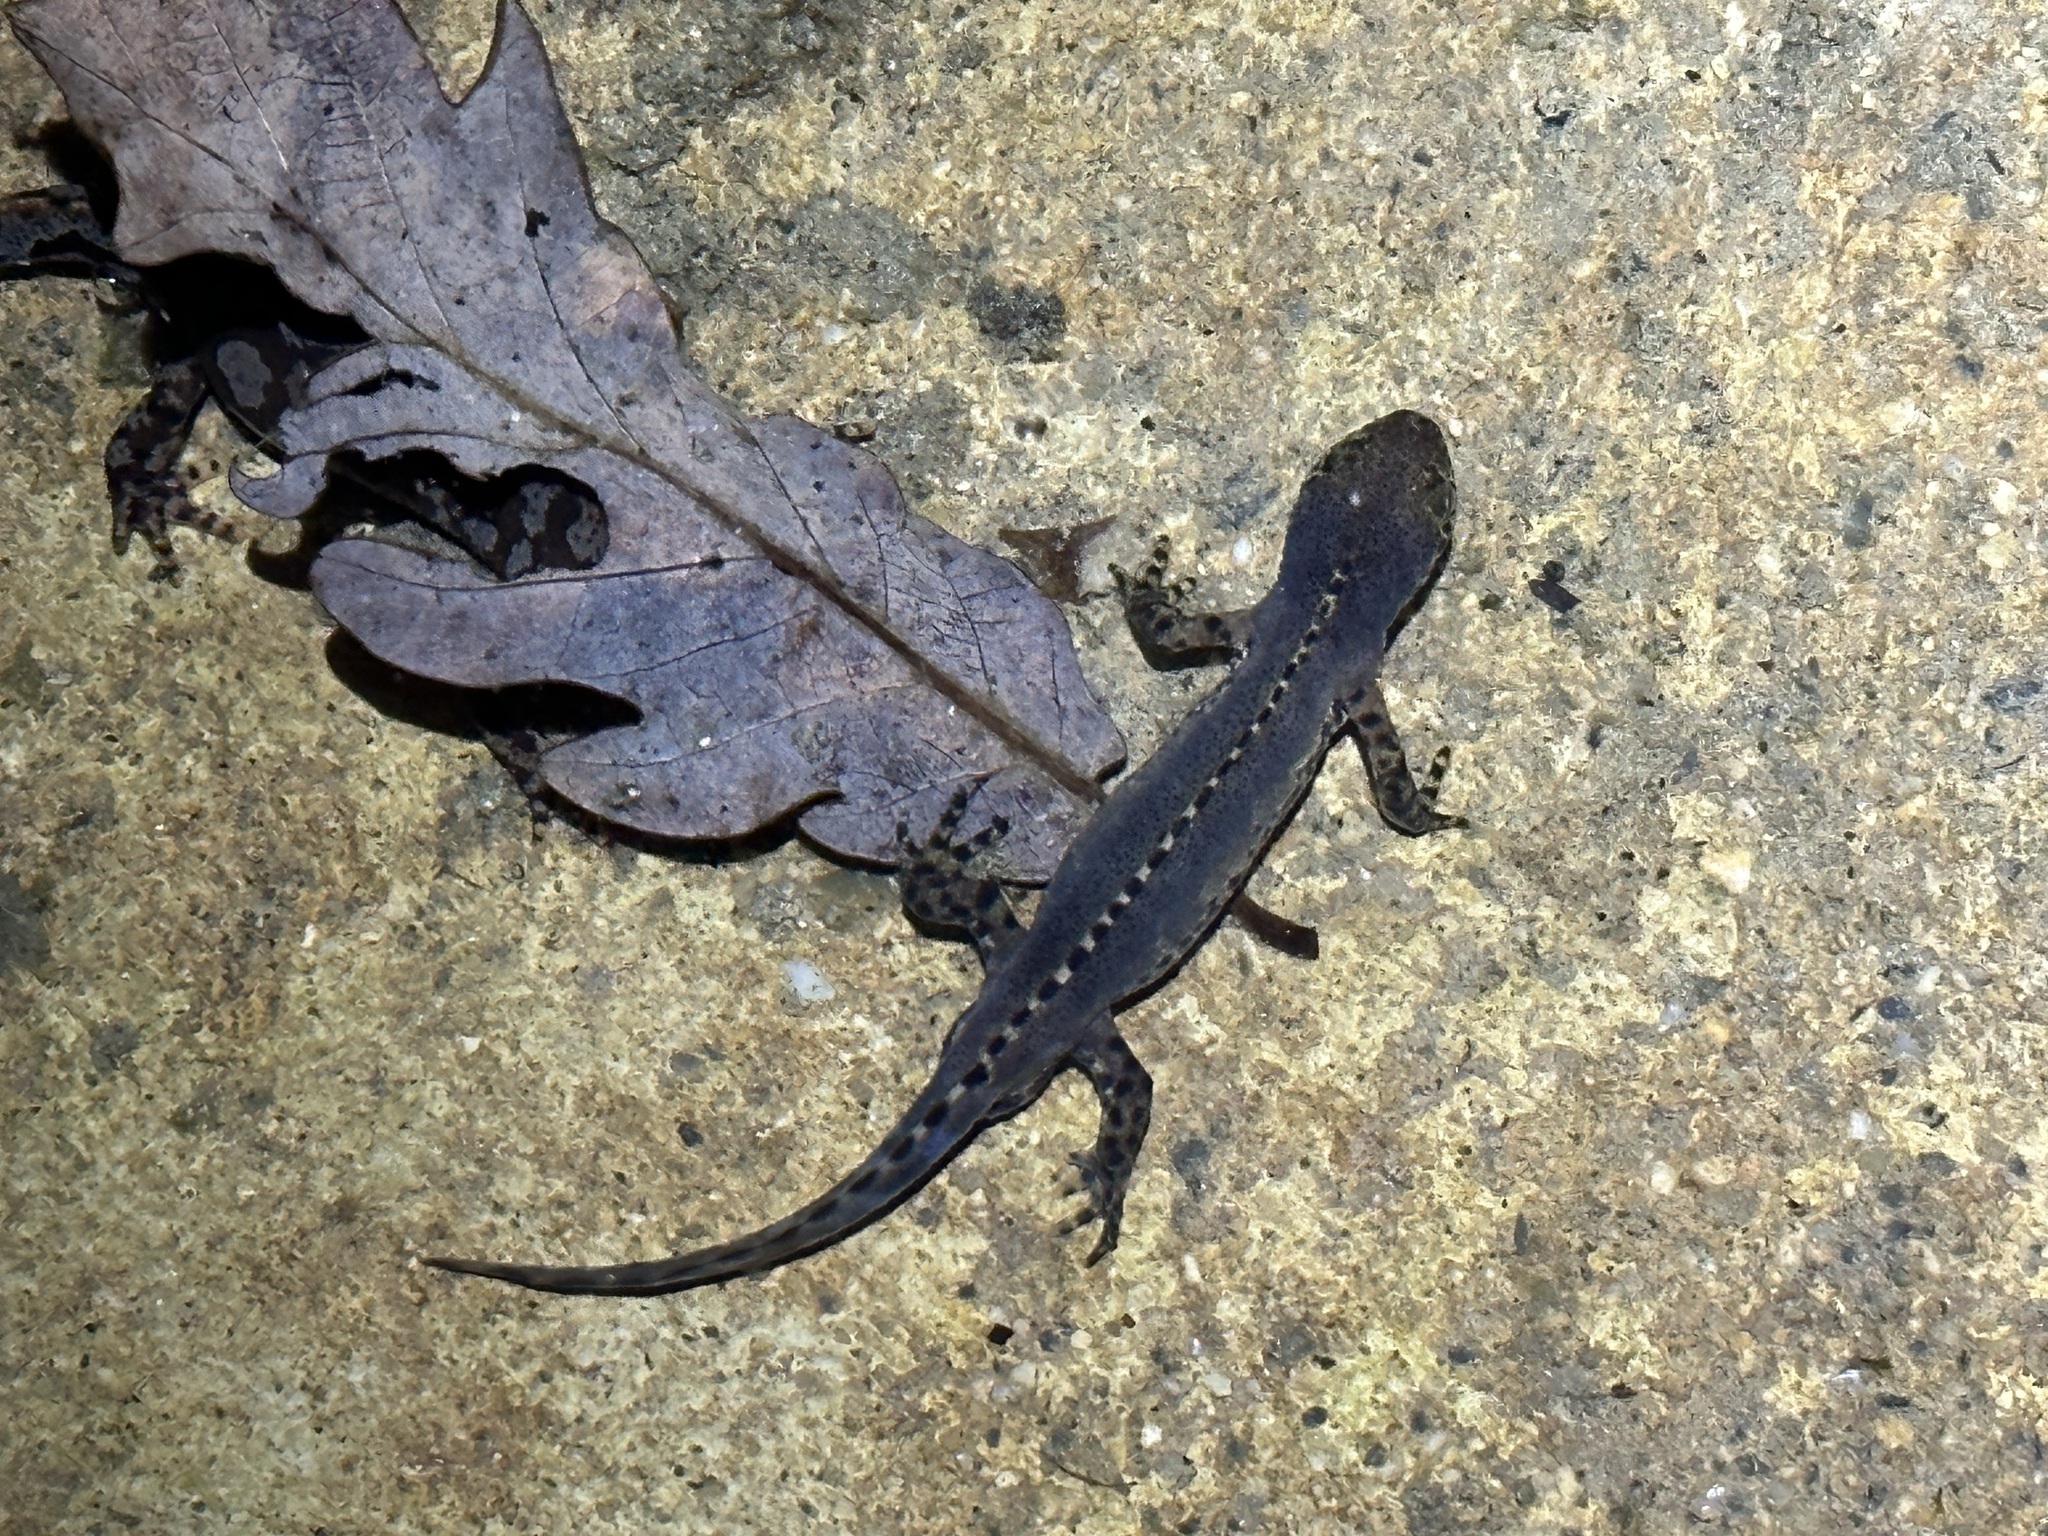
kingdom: Animalia
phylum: Chordata
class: Amphibia
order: Caudata
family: Salamandridae
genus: Ichthyosaura
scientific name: Ichthyosaura alpestris
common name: Alpine newt
